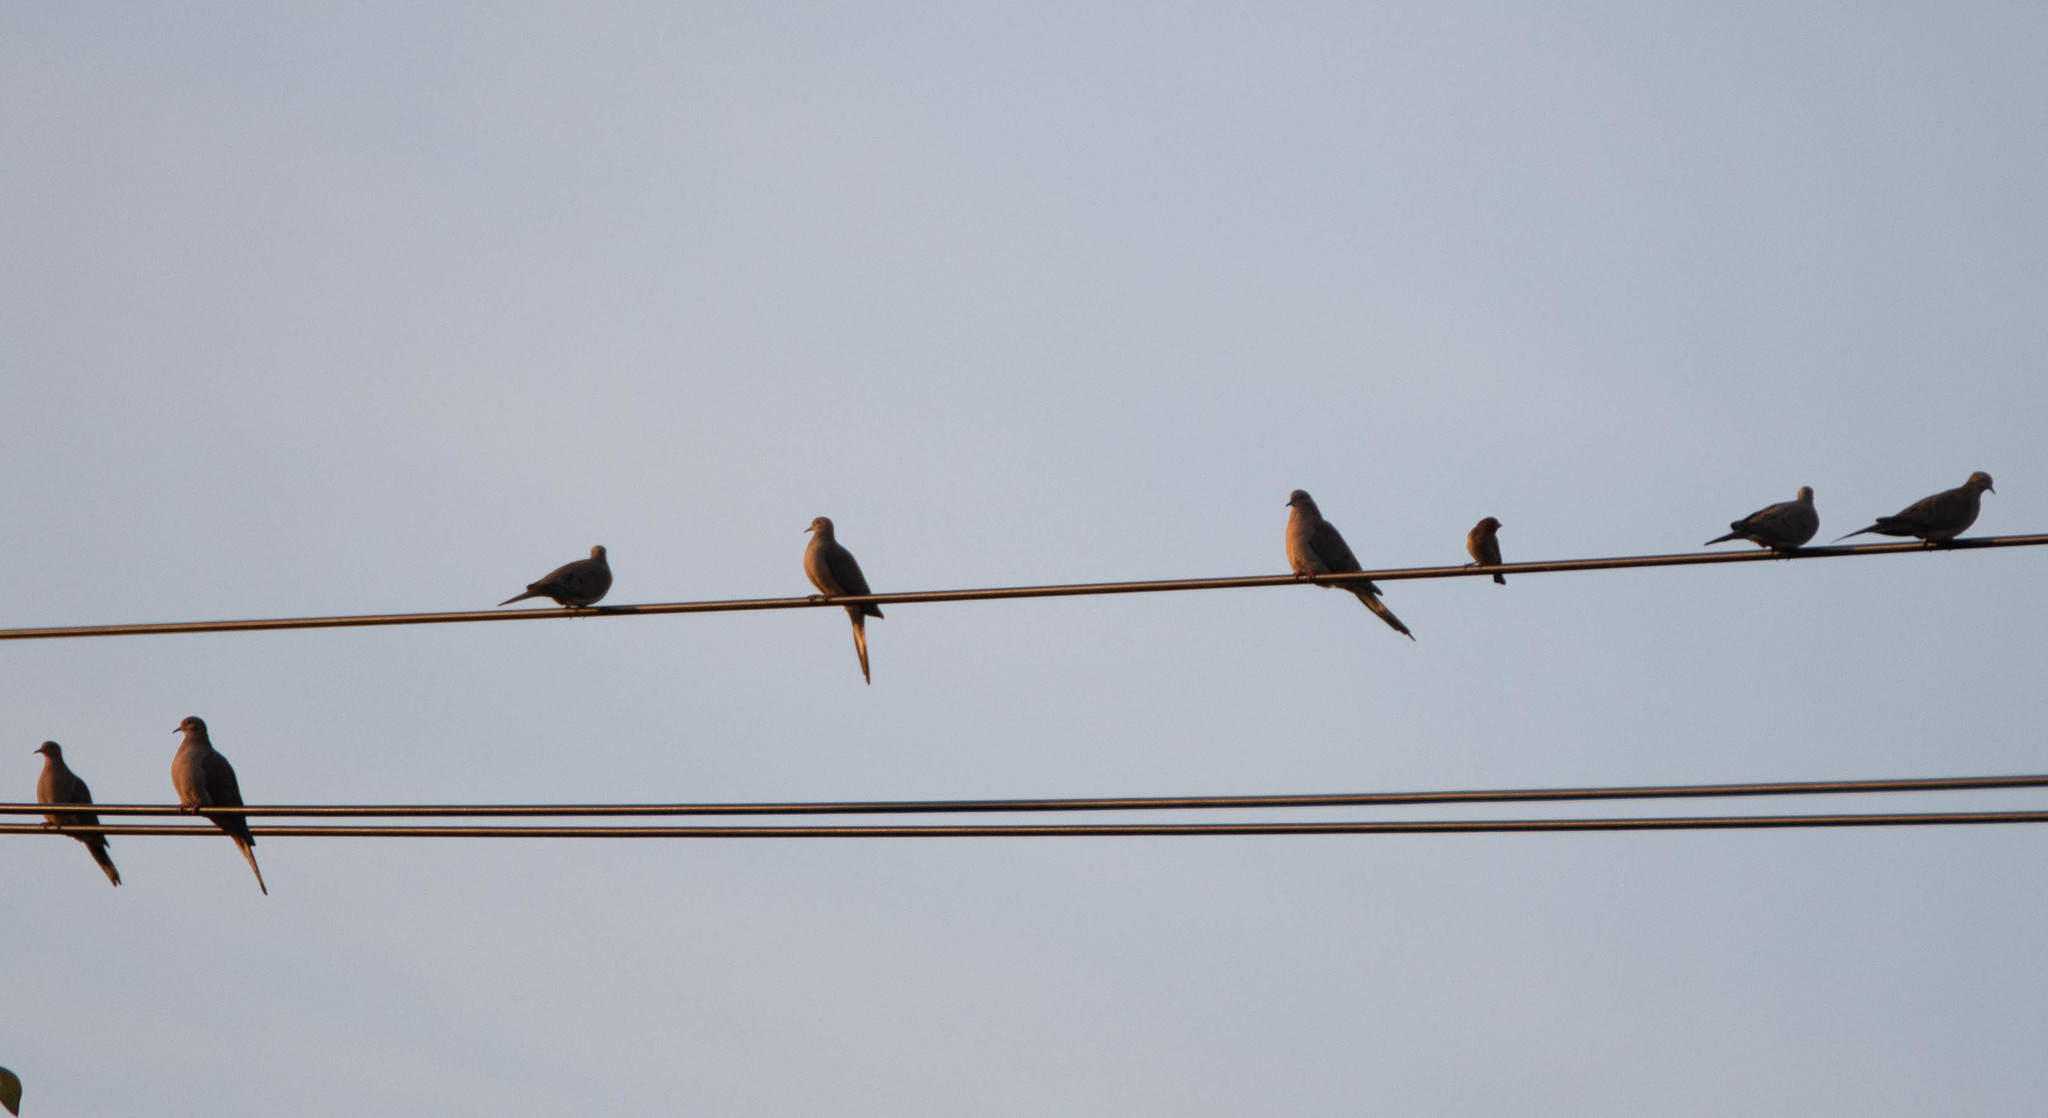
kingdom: Animalia
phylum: Chordata
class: Aves
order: Columbiformes
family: Columbidae
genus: Zenaida
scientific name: Zenaida macroura
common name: Mourning dove
